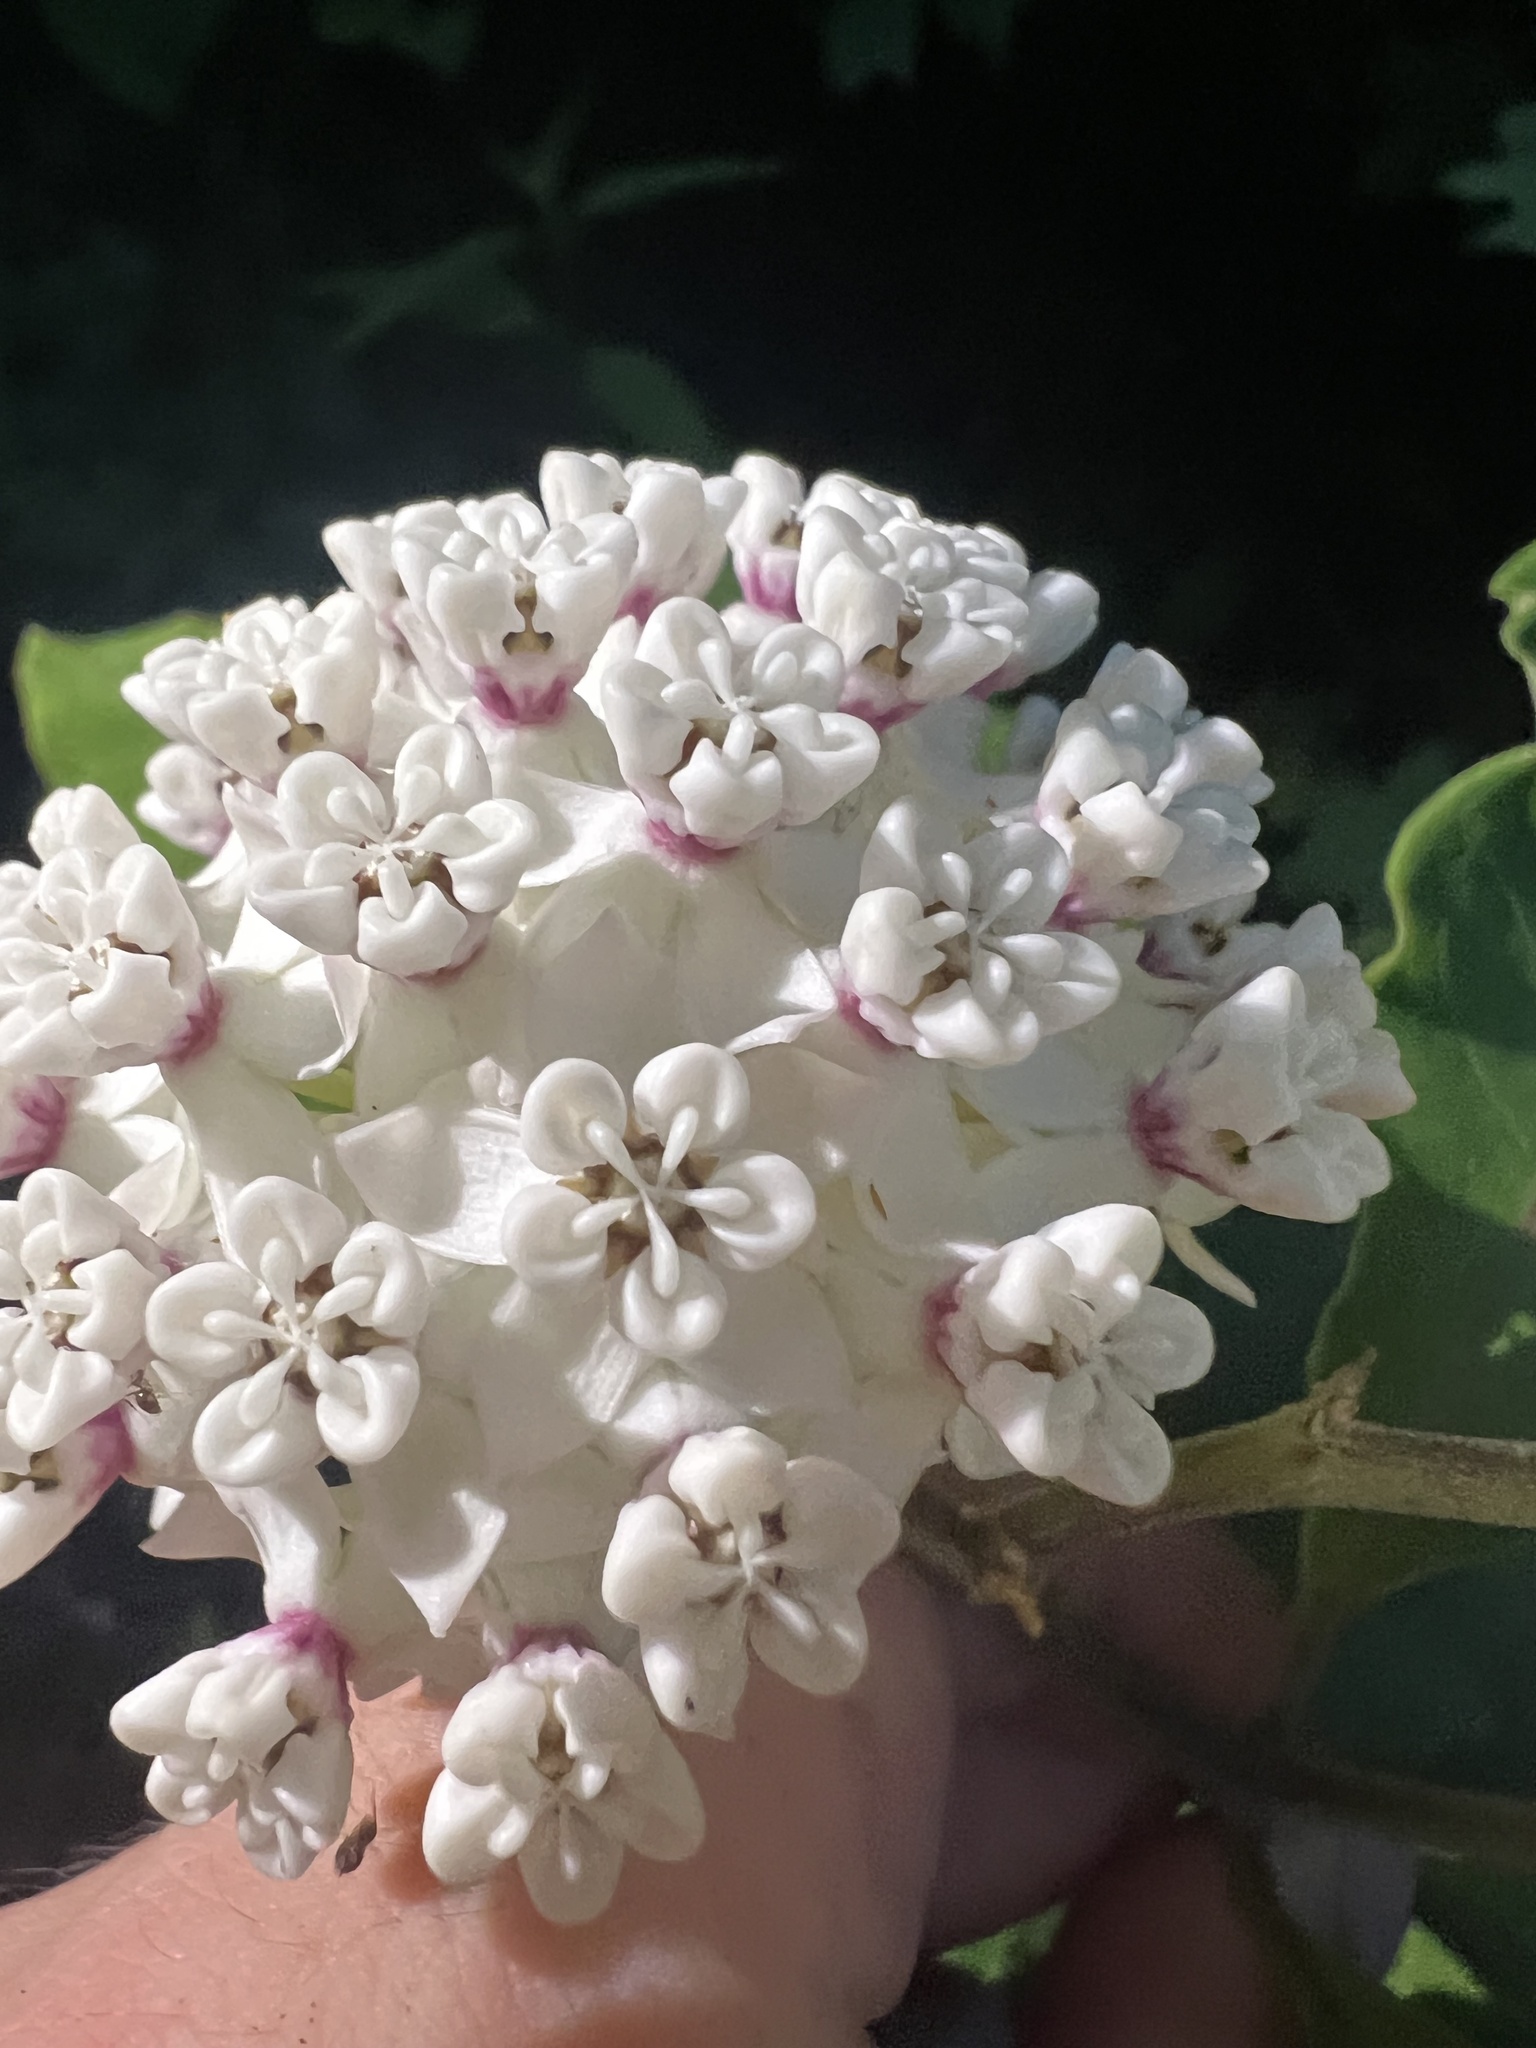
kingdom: Plantae
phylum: Tracheophyta
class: Magnoliopsida
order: Gentianales
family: Apocynaceae
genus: Asclepias
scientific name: Asclepias variegata
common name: Variegated milkweed
